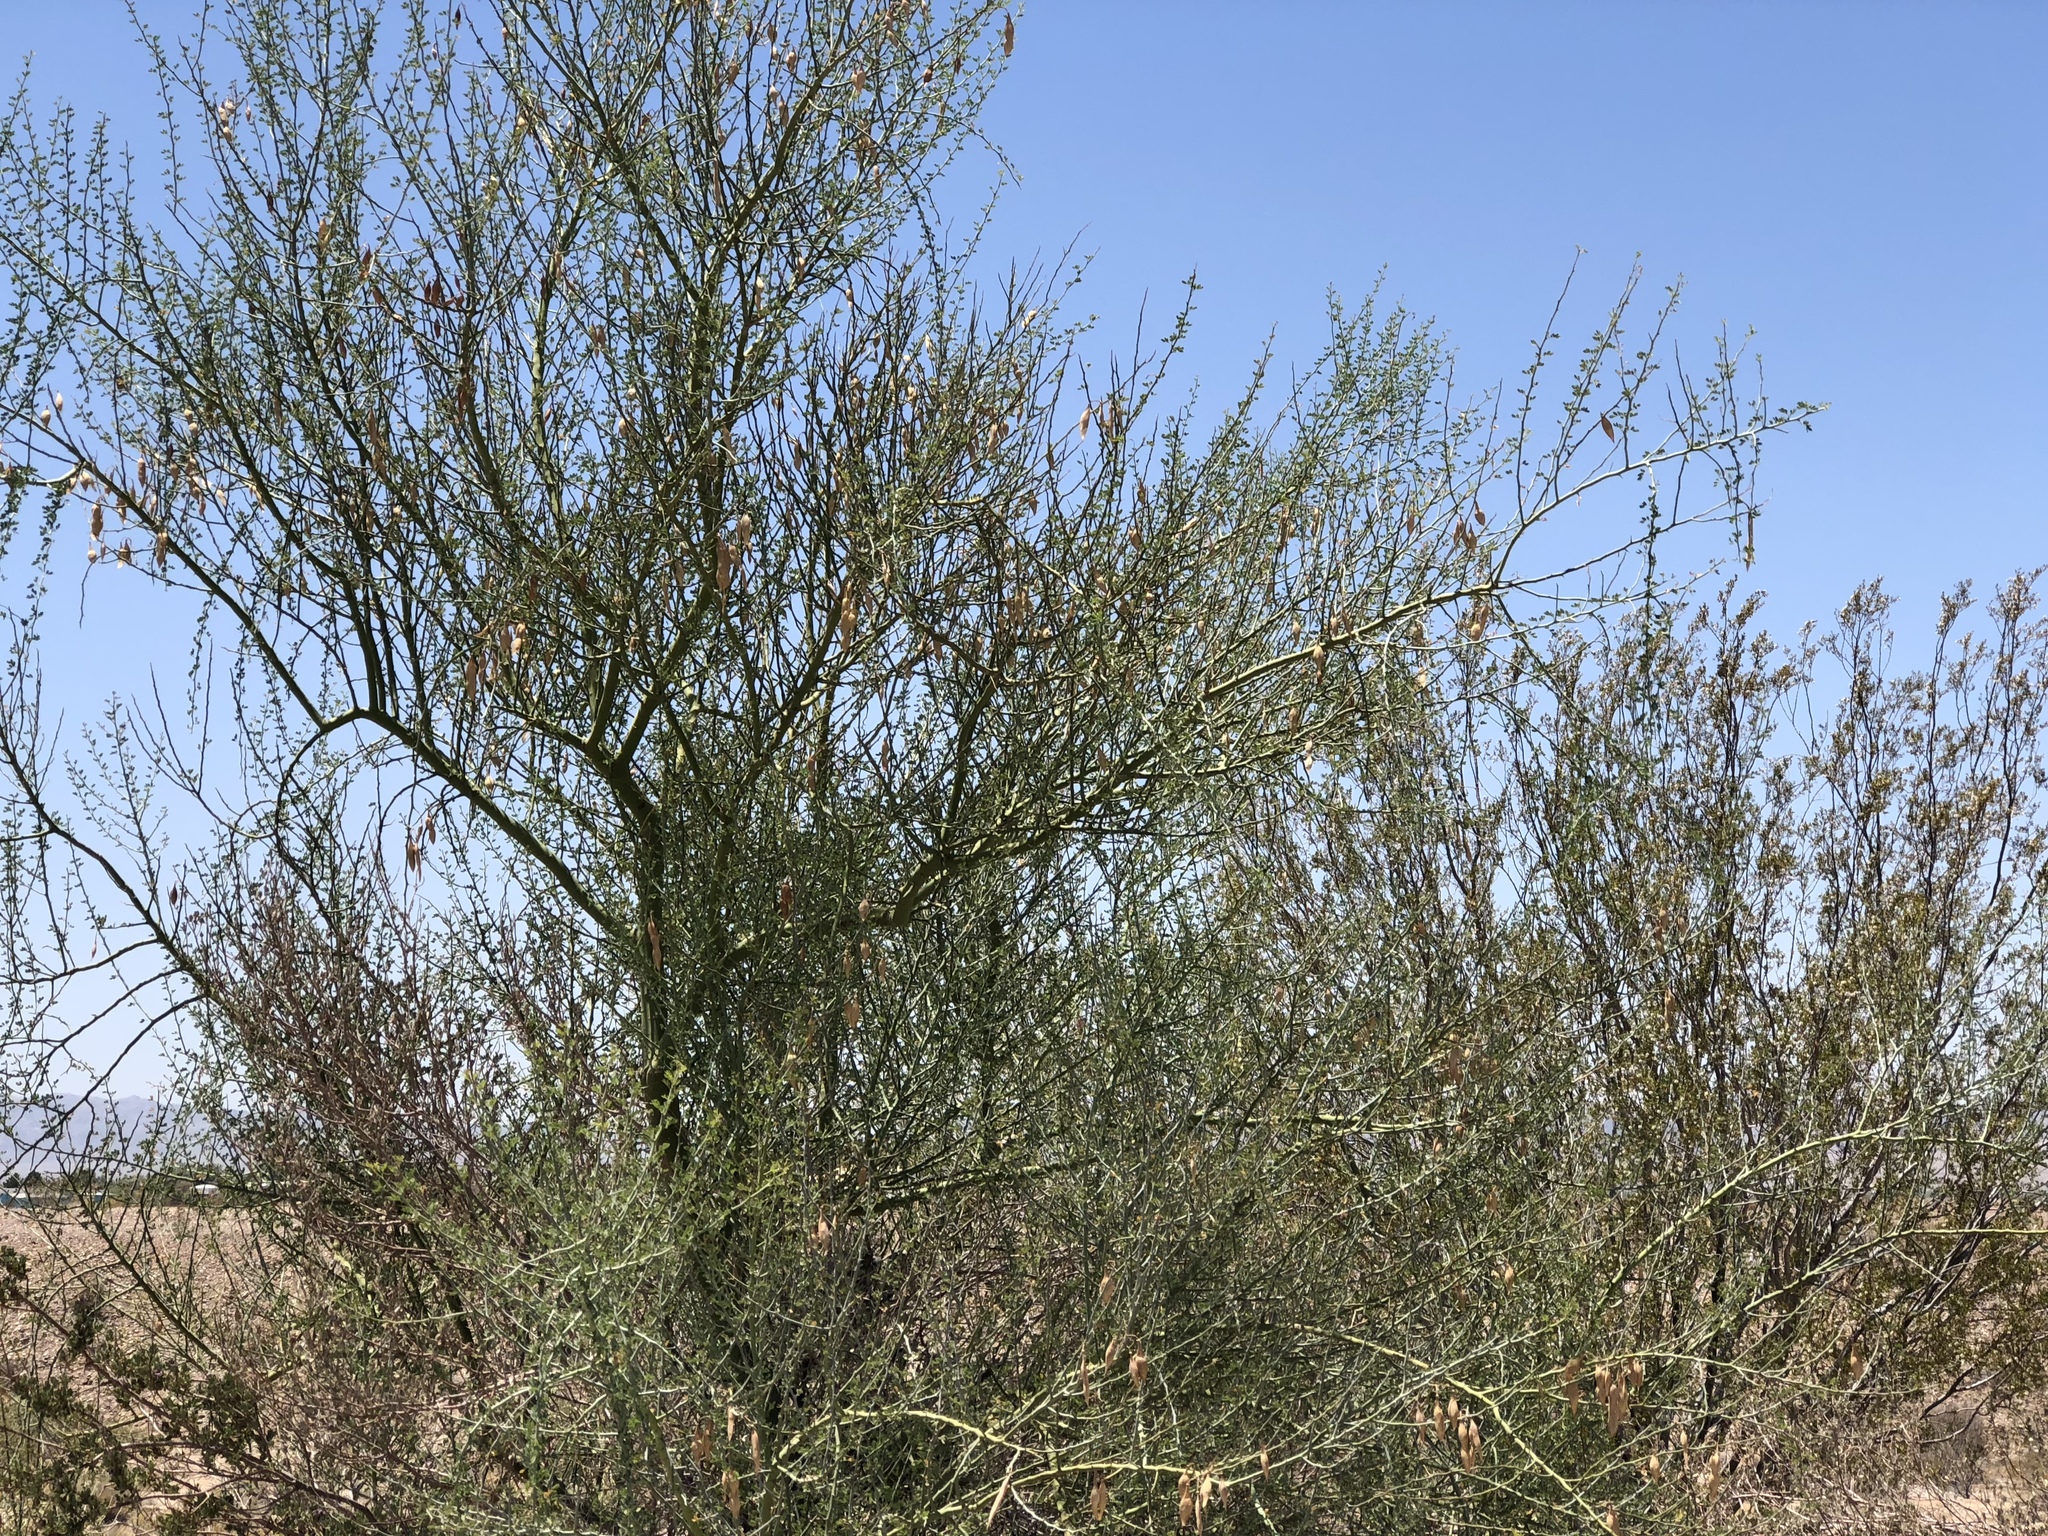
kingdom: Plantae
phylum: Tracheophyta
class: Magnoliopsida
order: Fabales
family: Fabaceae
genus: Parkinsonia
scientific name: Parkinsonia florida
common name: Blue paloverde
